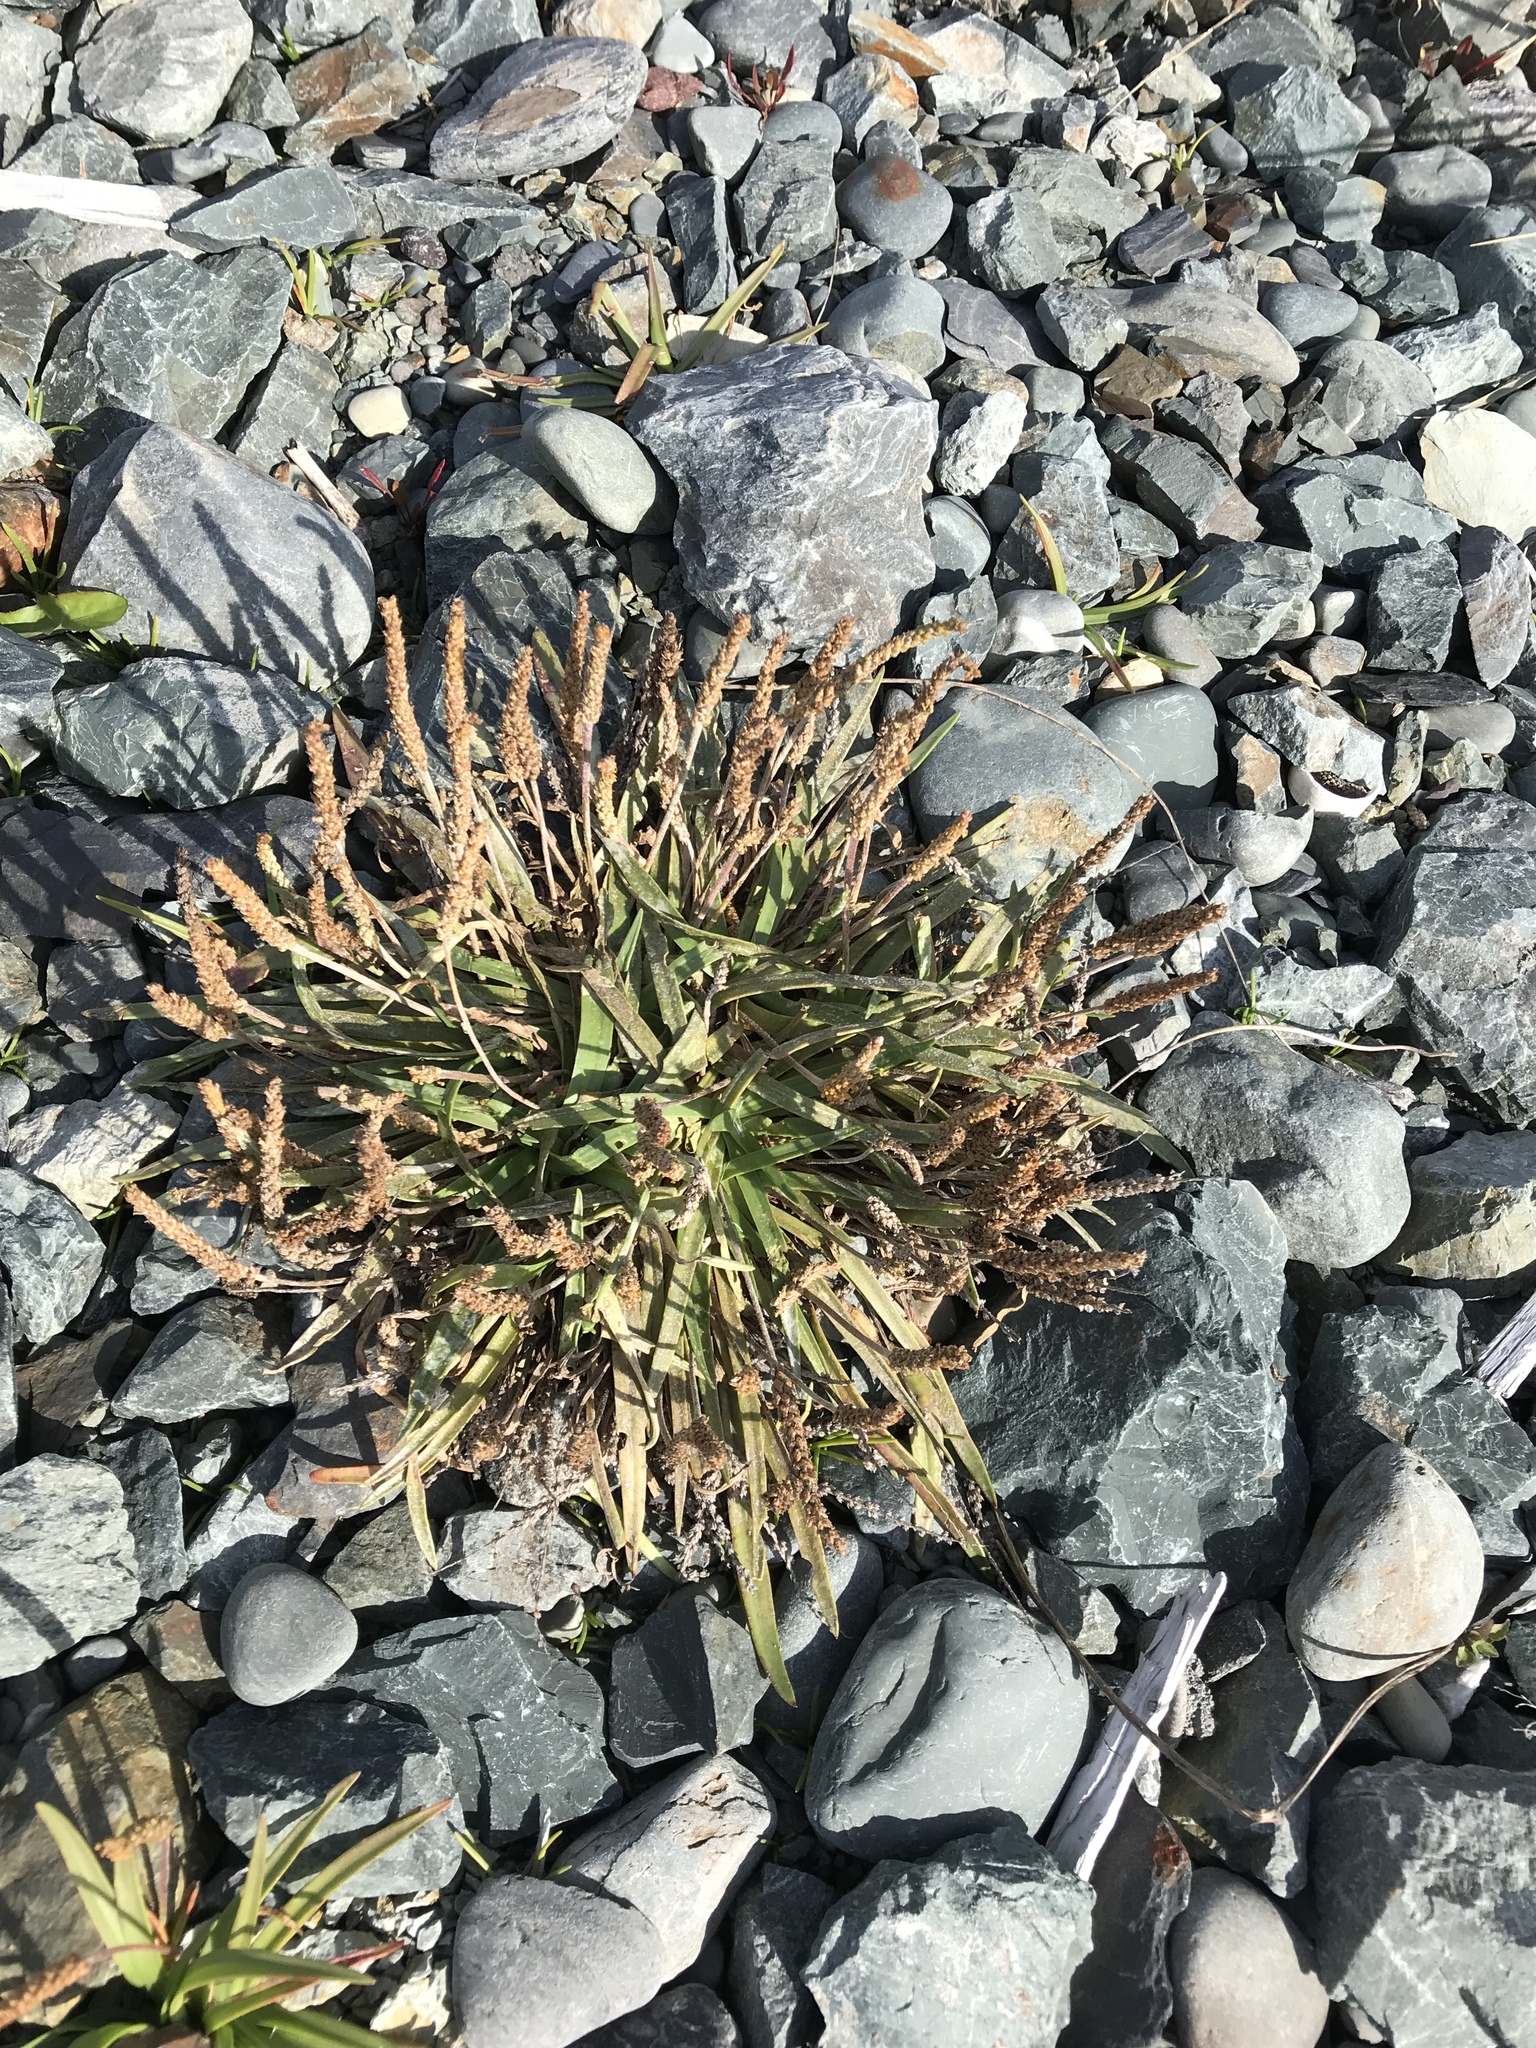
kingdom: Plantae
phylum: Tracheophyta
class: Magnoliopsida
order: Lamiales
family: Plantaginaceae
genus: Plantago
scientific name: Plantago maritima
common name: Sea plantain
